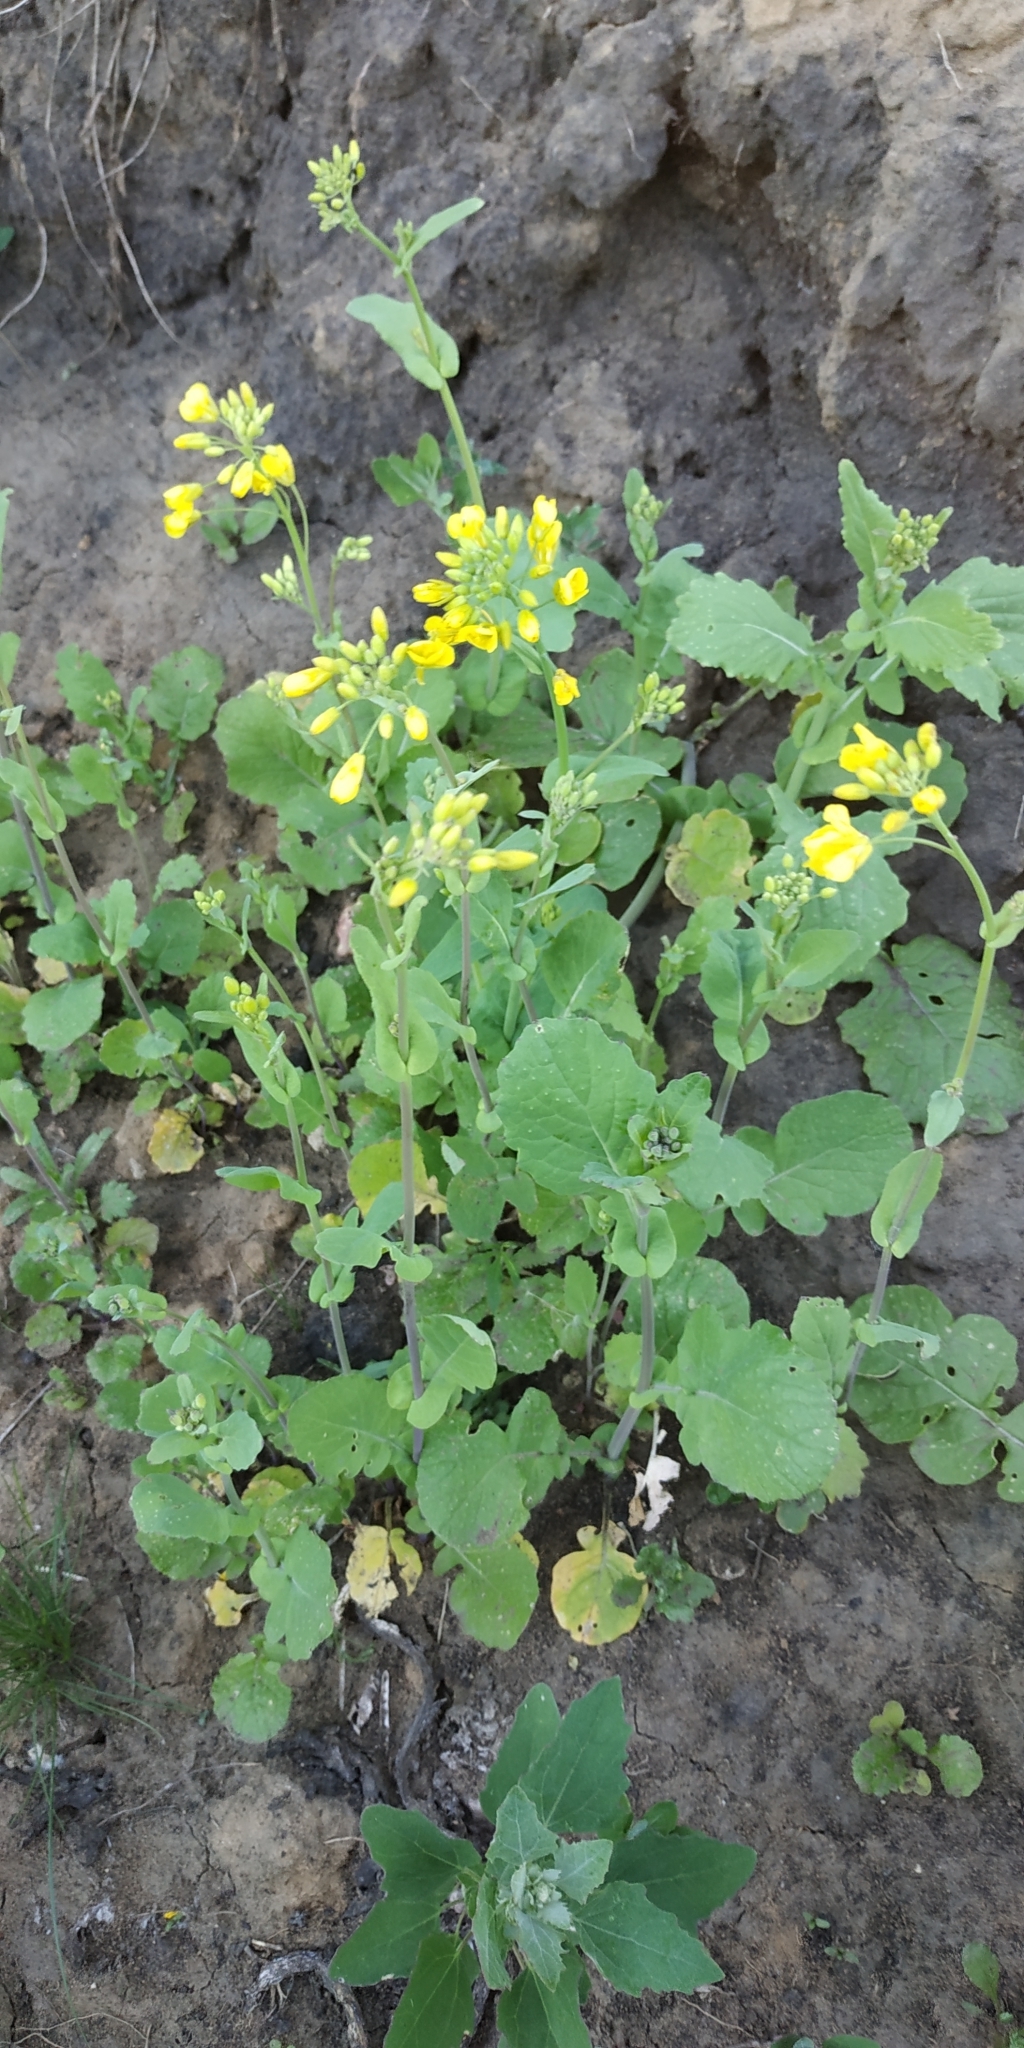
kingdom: Plantae
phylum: Tracheophyta
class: Magnoliopsida
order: Brassicales
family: Brassicaceae
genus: Brassica
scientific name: Brassica rapa
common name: Field mustard
